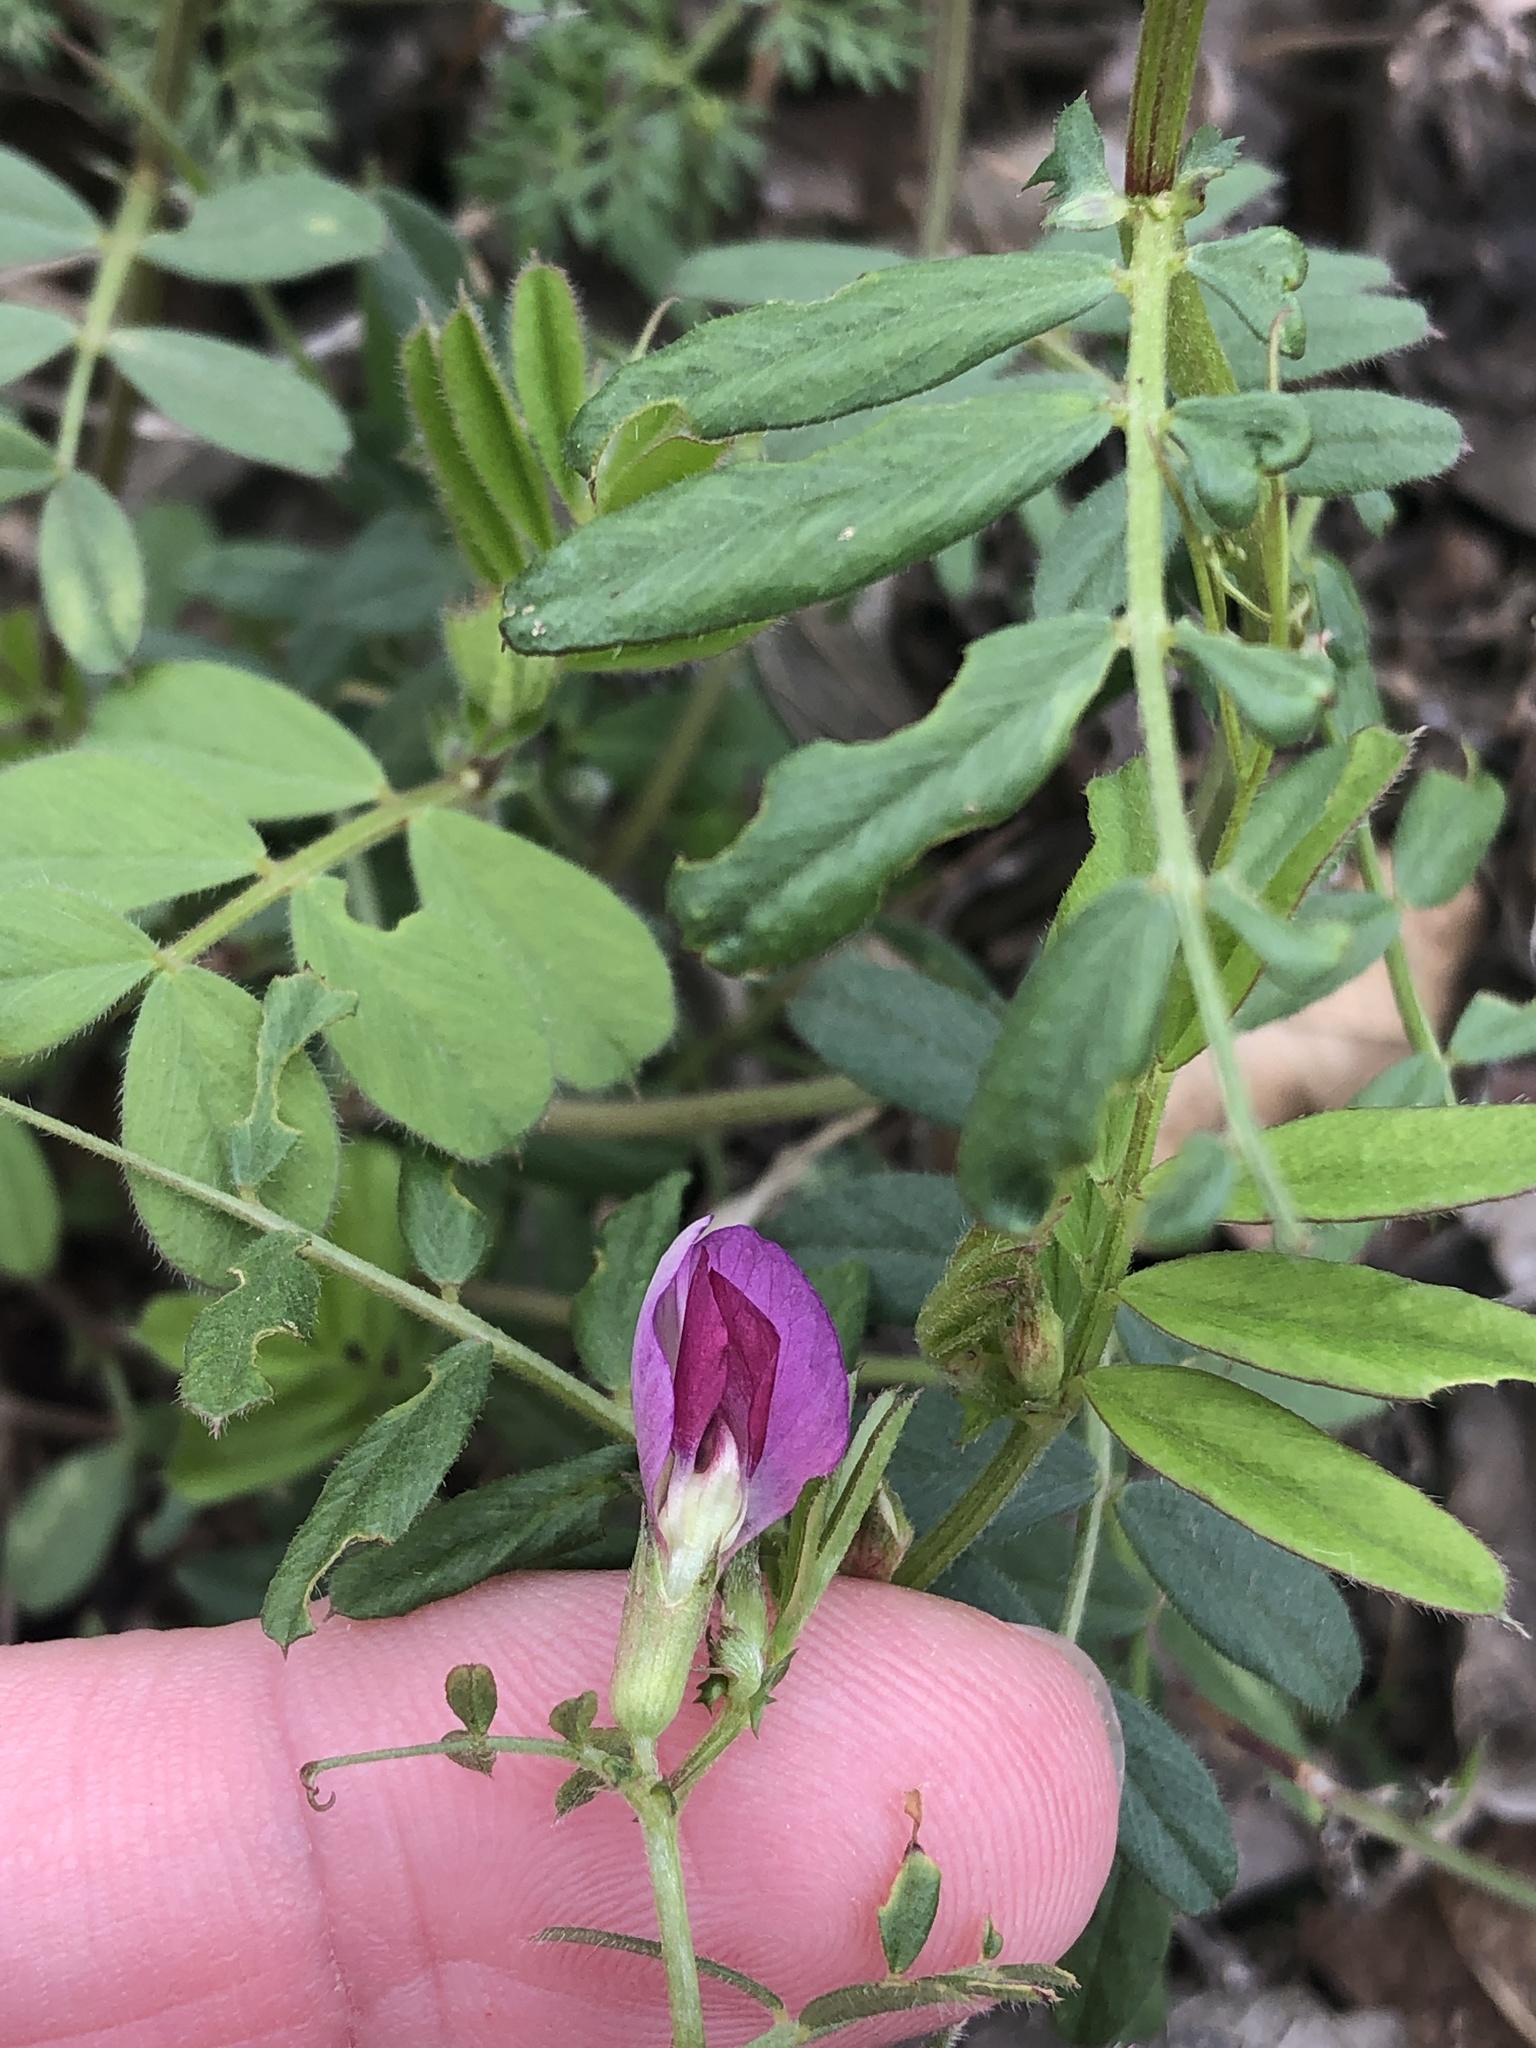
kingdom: Plantae
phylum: Tracheophyta
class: Magnoliopsida
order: Fabales
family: Fabaceae
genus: Vicia
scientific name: Vicia sativa
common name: Garden vetch
